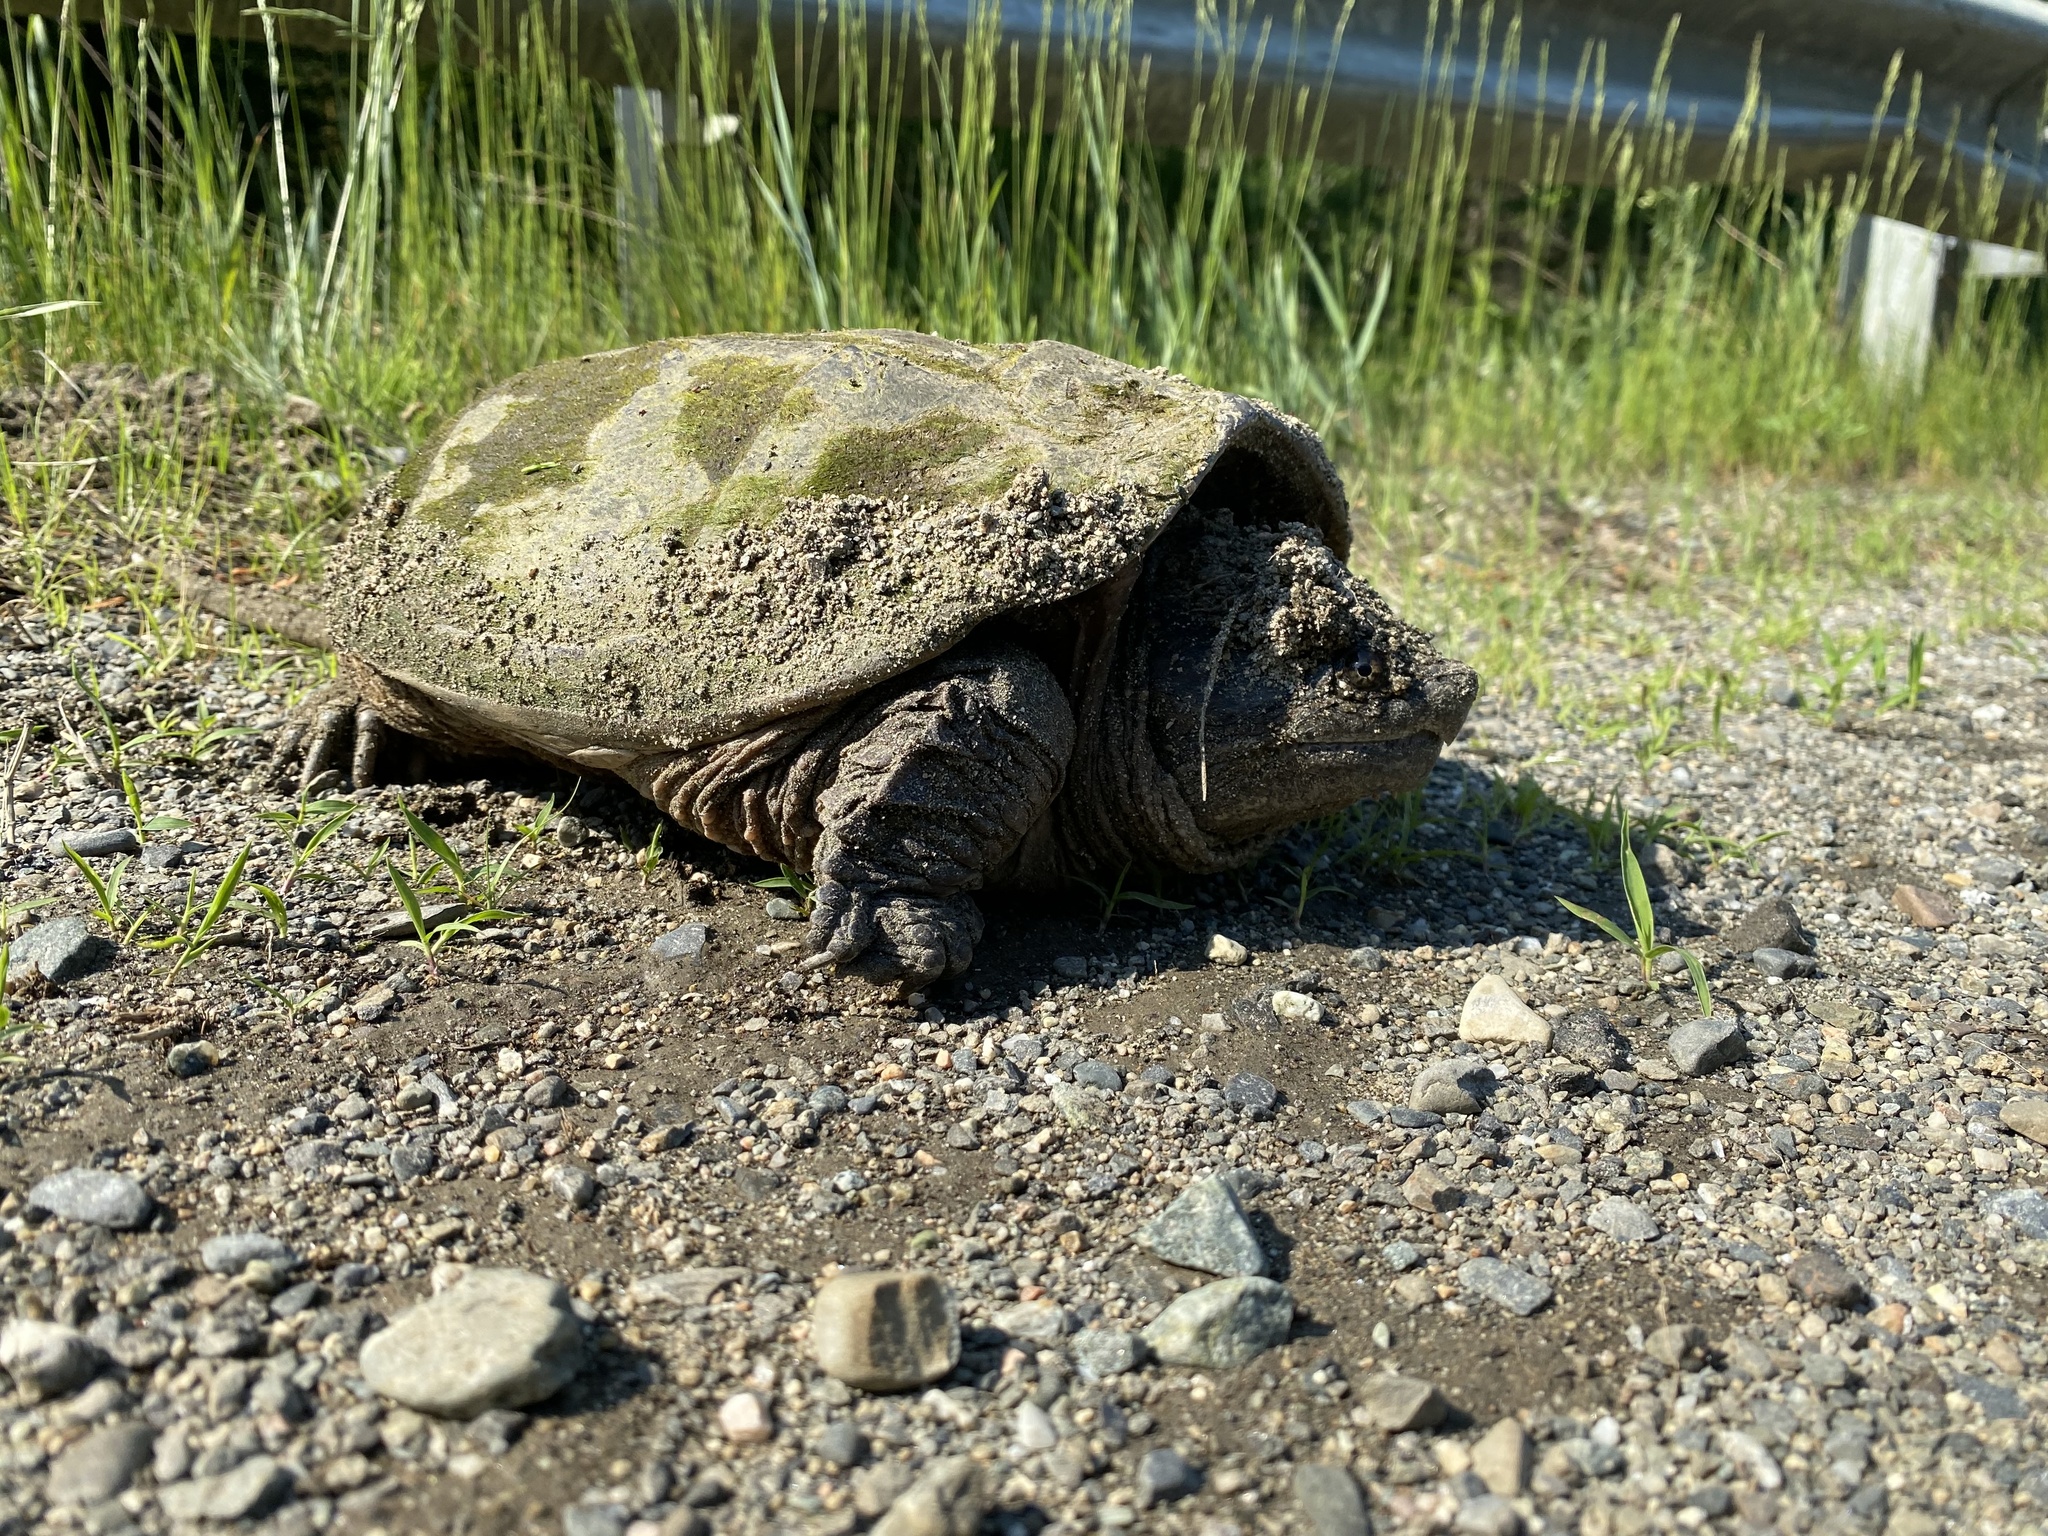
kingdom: Animalia
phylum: Chordata
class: Testudines
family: Chelydridae
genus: Chelydra
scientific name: Chelydra serpentina
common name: Common snapping turtle
